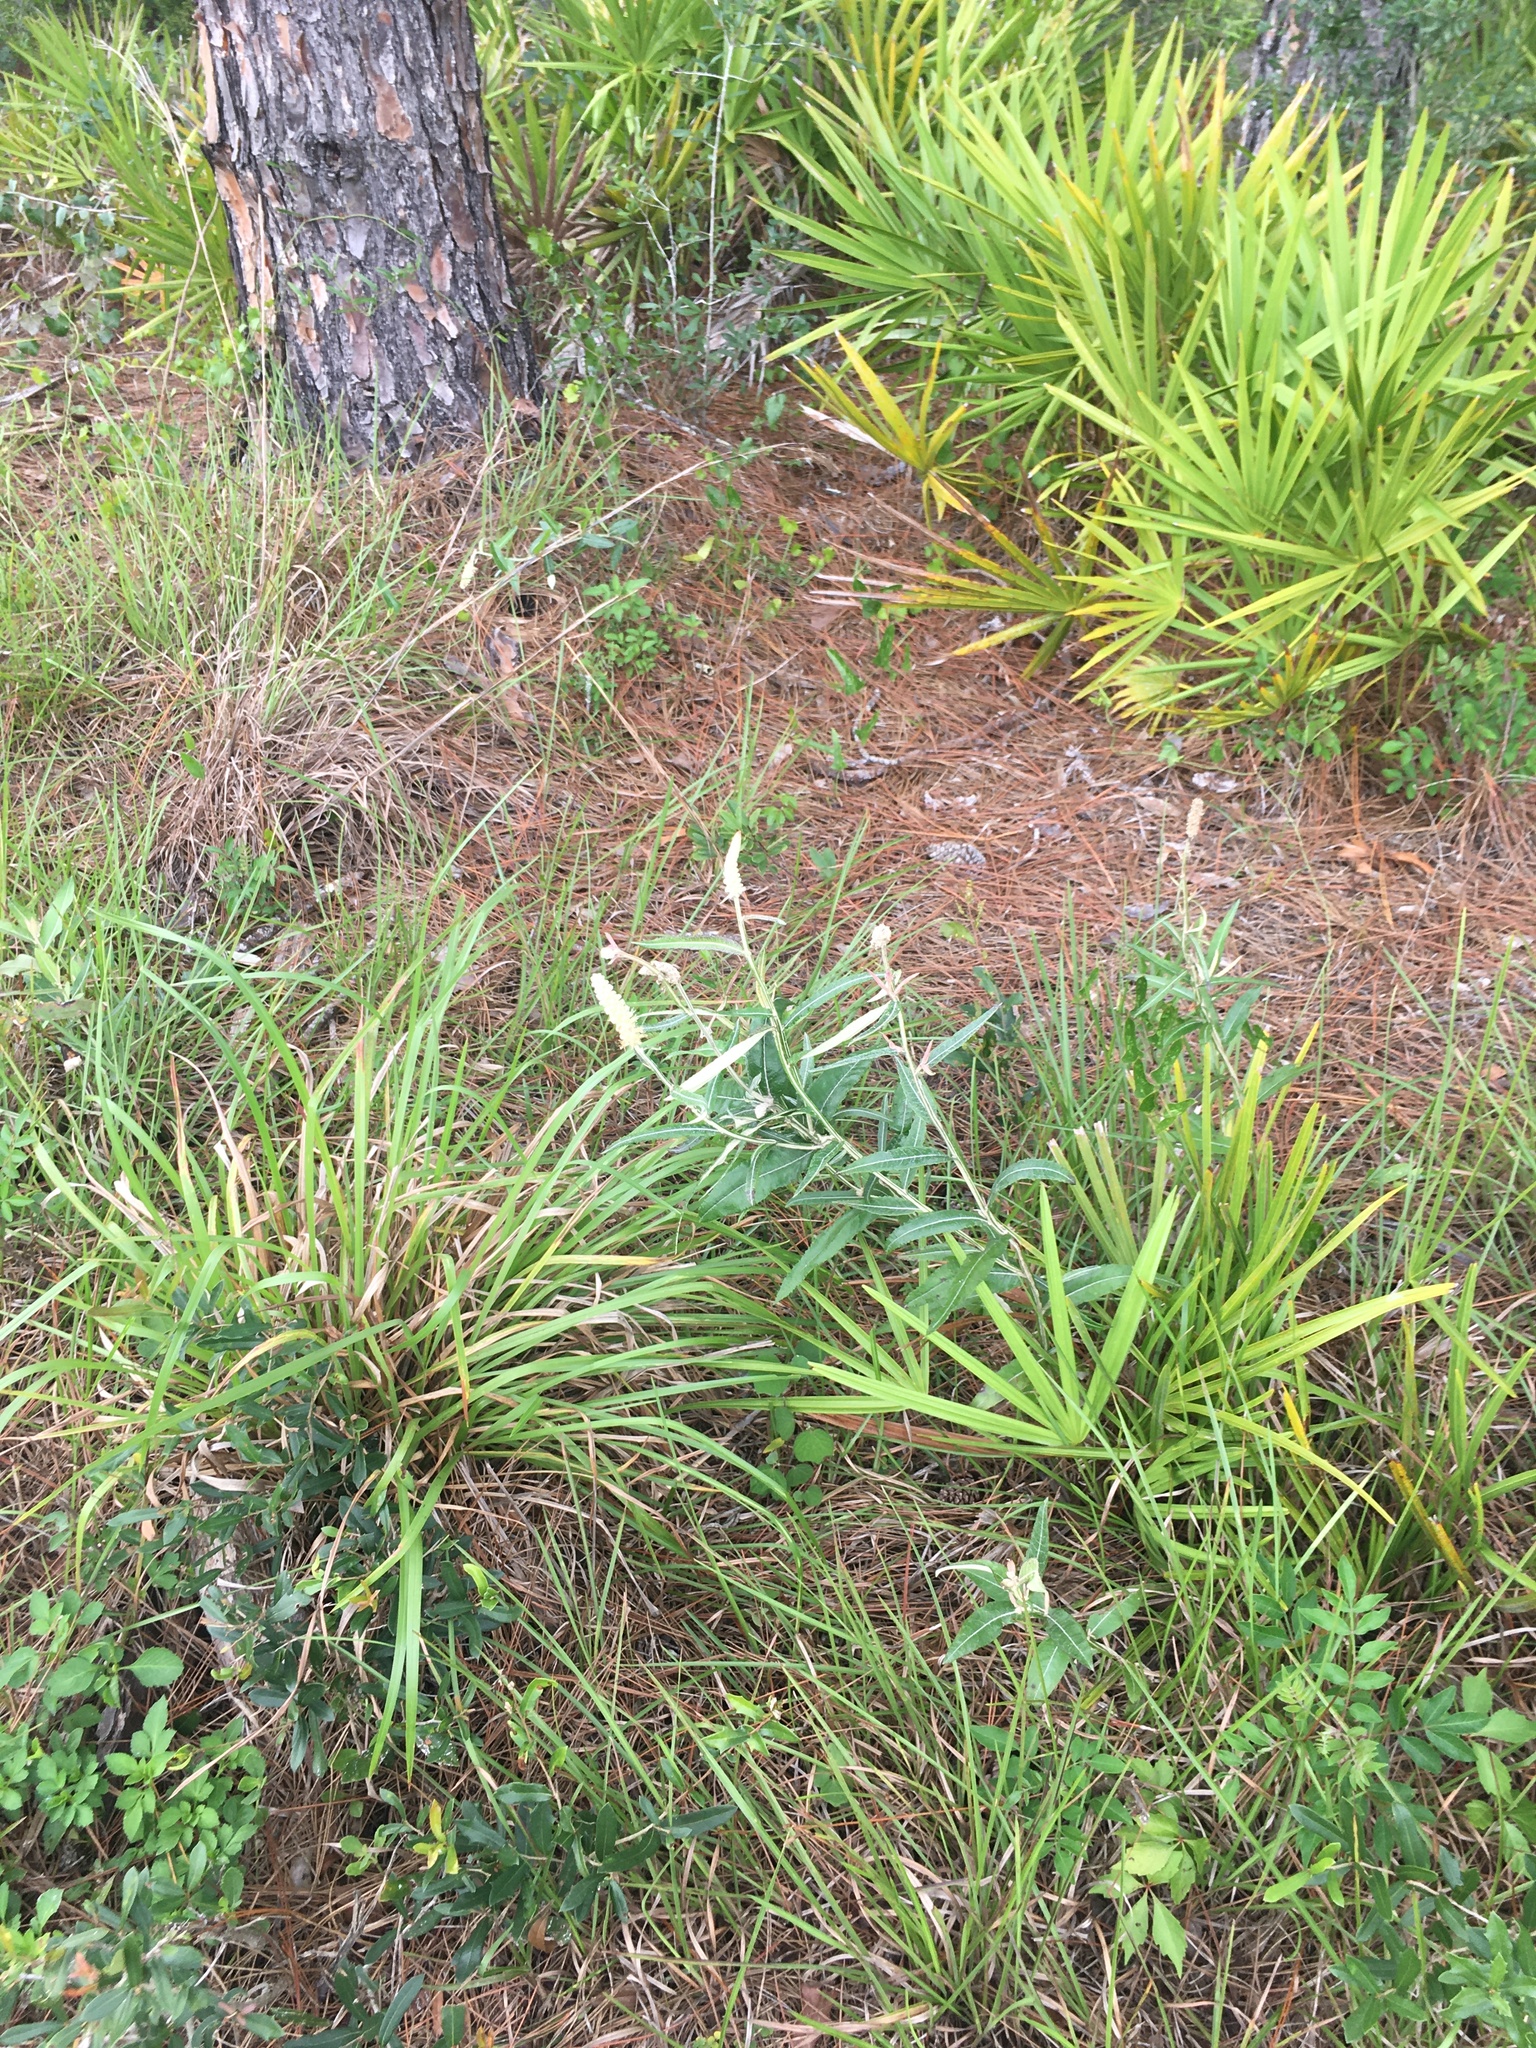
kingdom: Plantae
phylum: Tracheophyta
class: Magnoliopsida
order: Asterales
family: Asteraceae
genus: Pterocaulon
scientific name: Pterocaulon pycnostachyum
